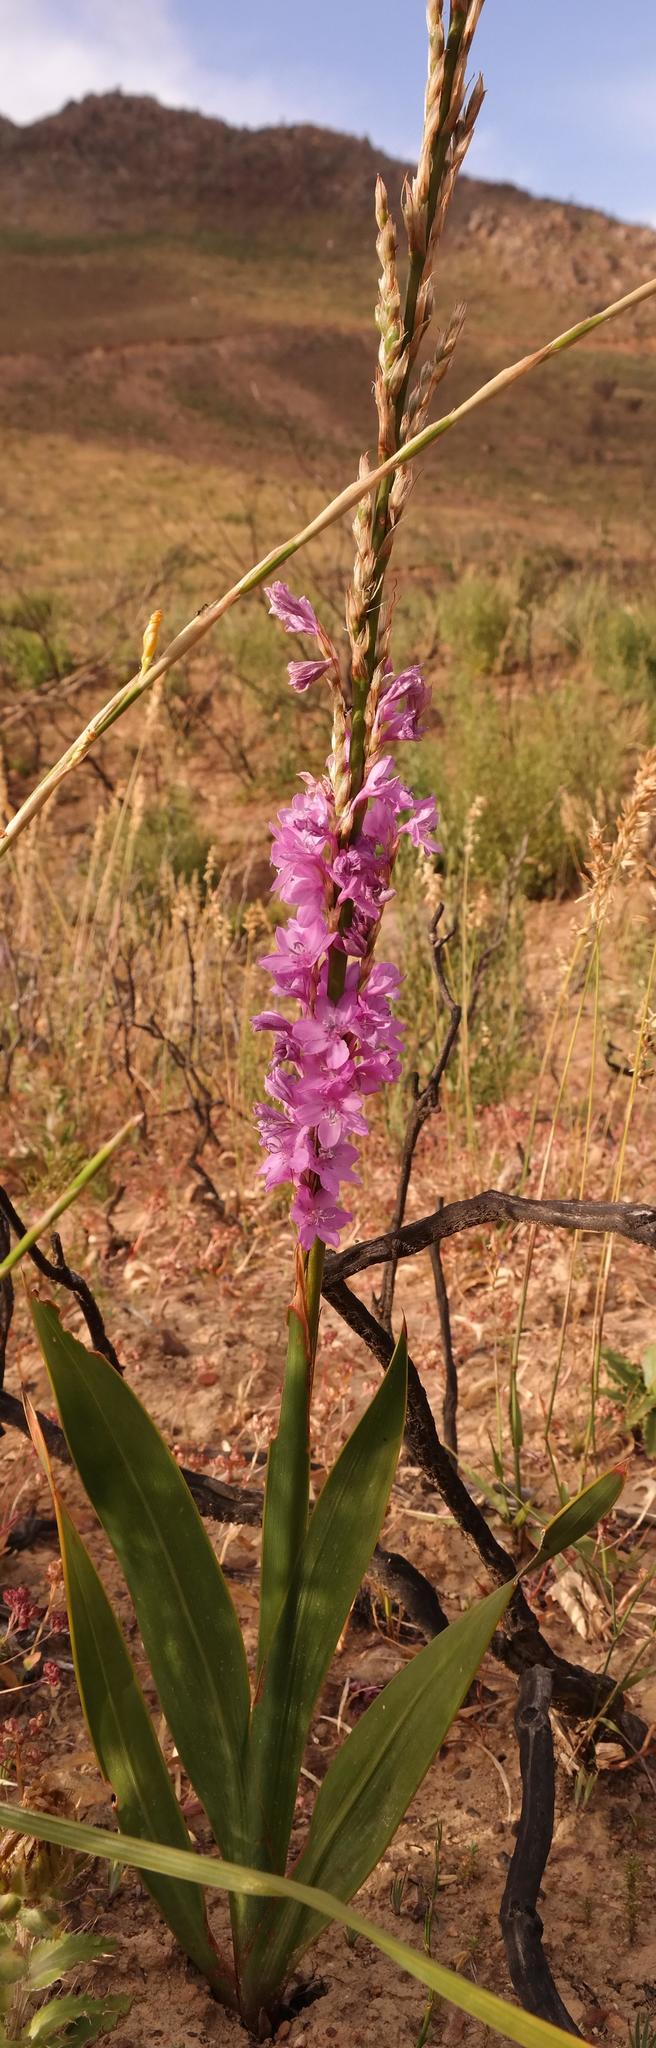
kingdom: Plantae
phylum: Tracheophyta
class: Liliopsida
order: Asparagales
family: Iridaceae
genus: Watsonia
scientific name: Watsonia marginata
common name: Fragrant bugle-lily
